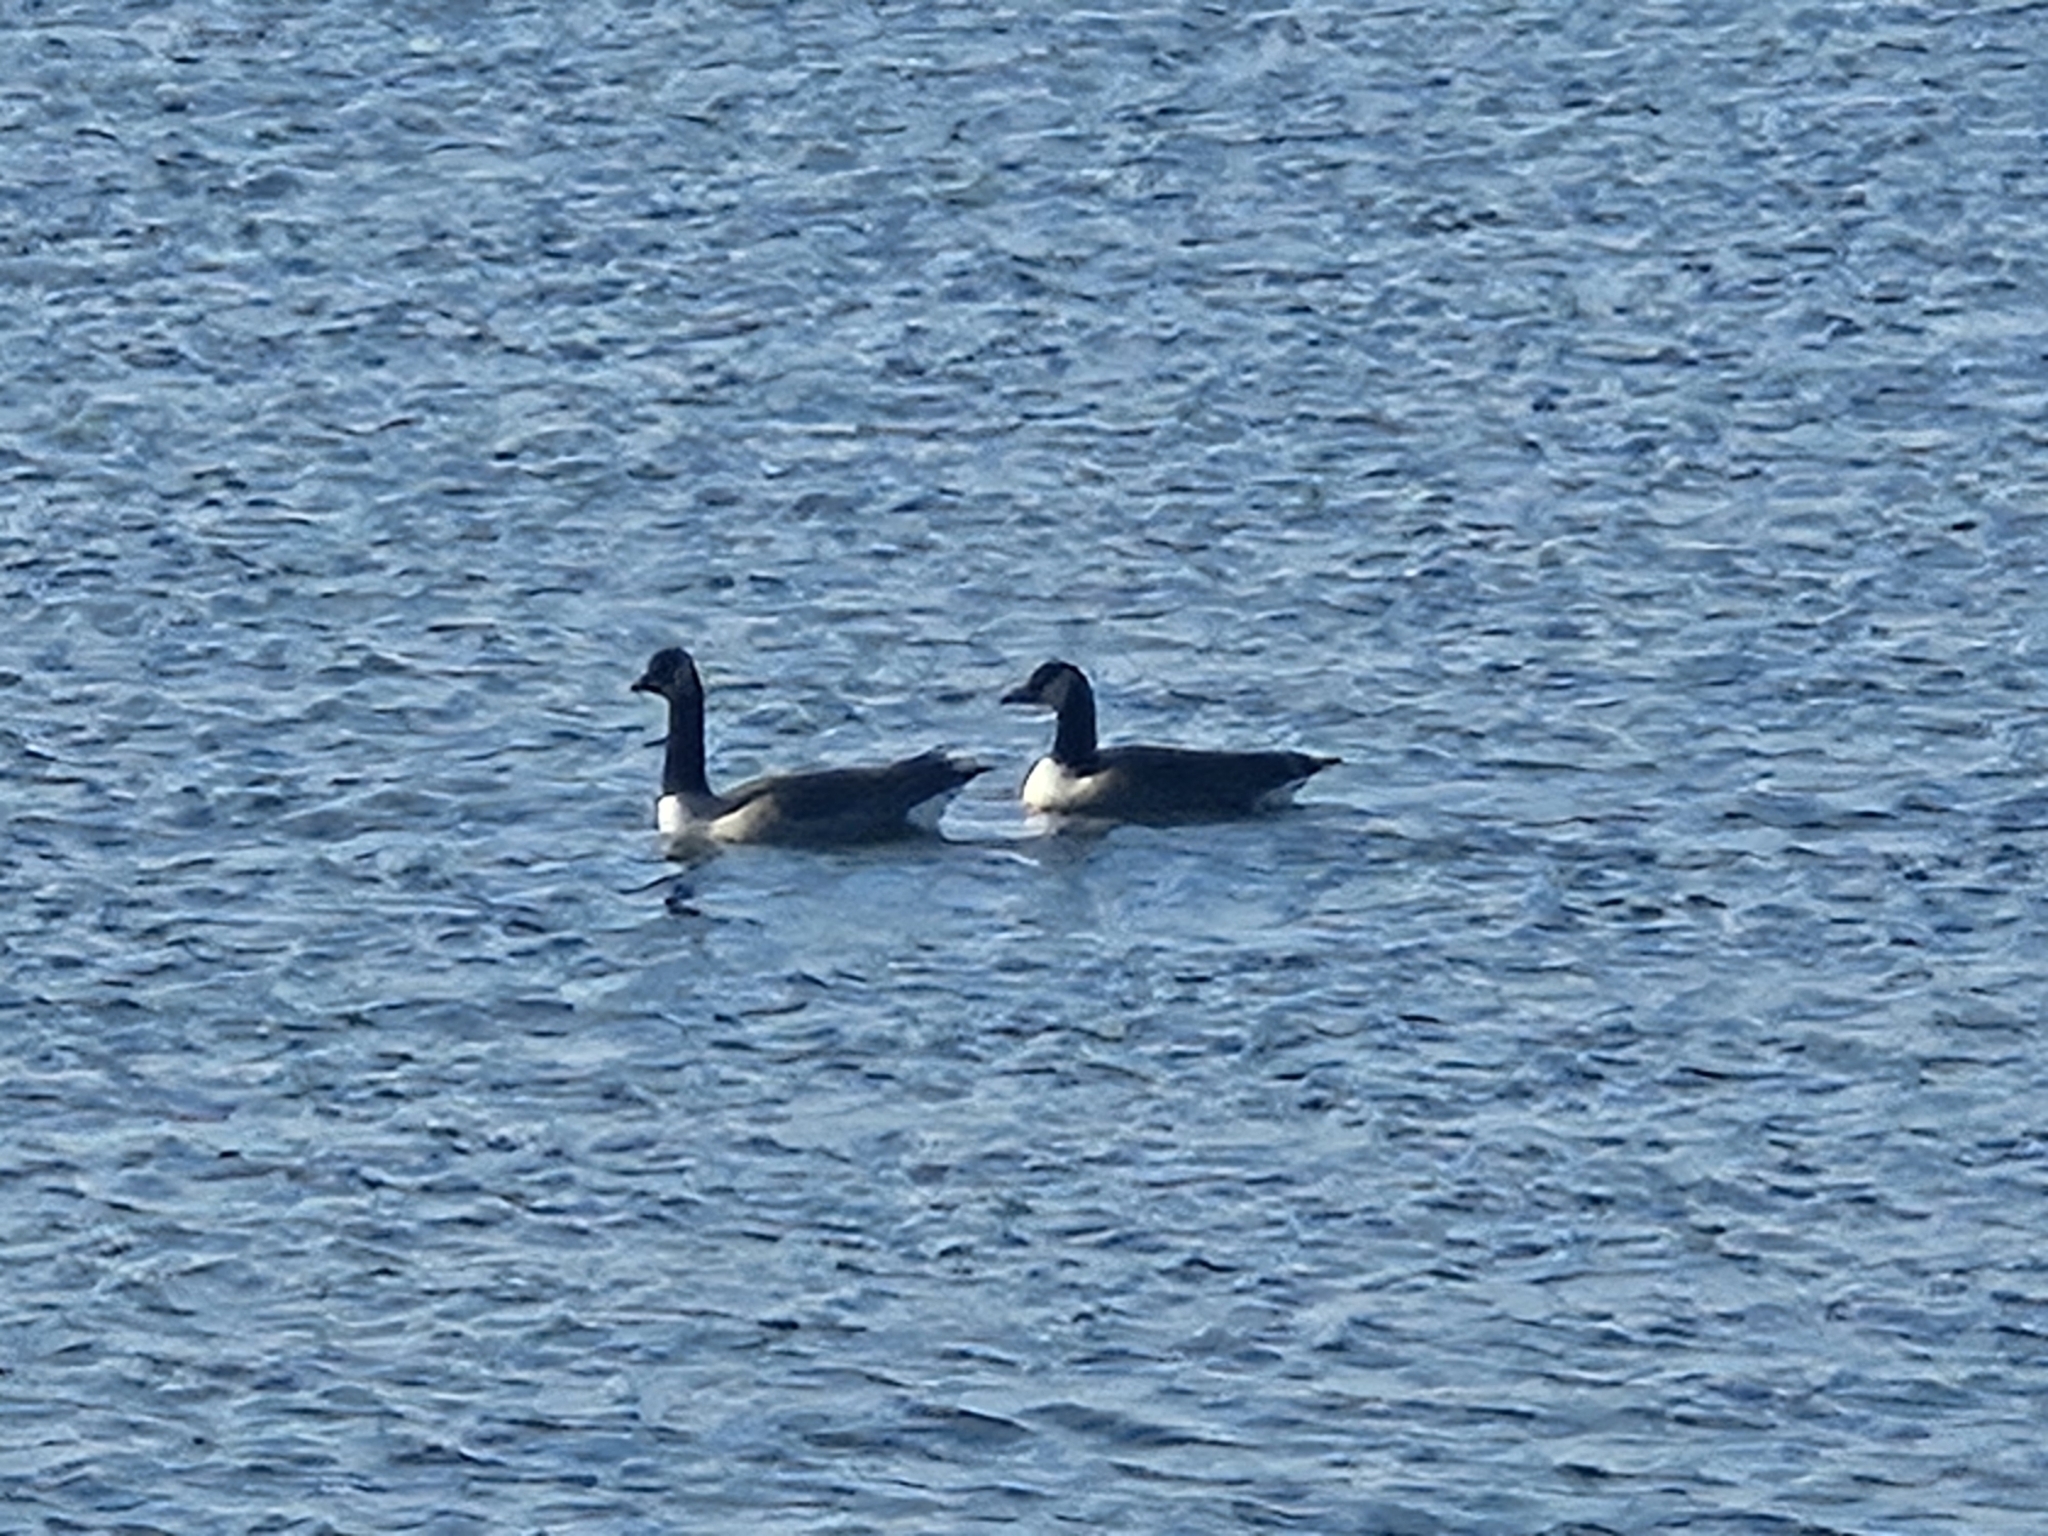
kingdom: Animalia
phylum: Chordata
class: Aves
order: Anseriformes
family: Anatidae
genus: Branta
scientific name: Branta canadensis
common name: Canada goose
